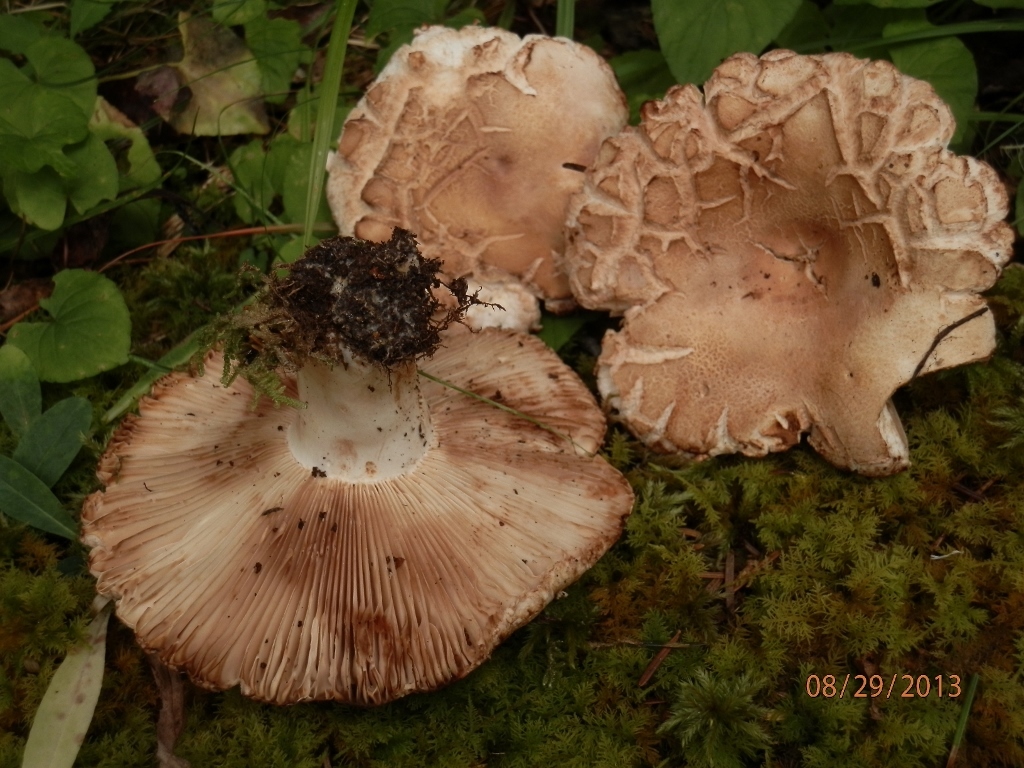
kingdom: Fungi
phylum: Basidiomycota
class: Agaricomycetes
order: Russulales
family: Russulaceae
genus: Russula
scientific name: Russula compacta
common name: Fishbiscuit russula
